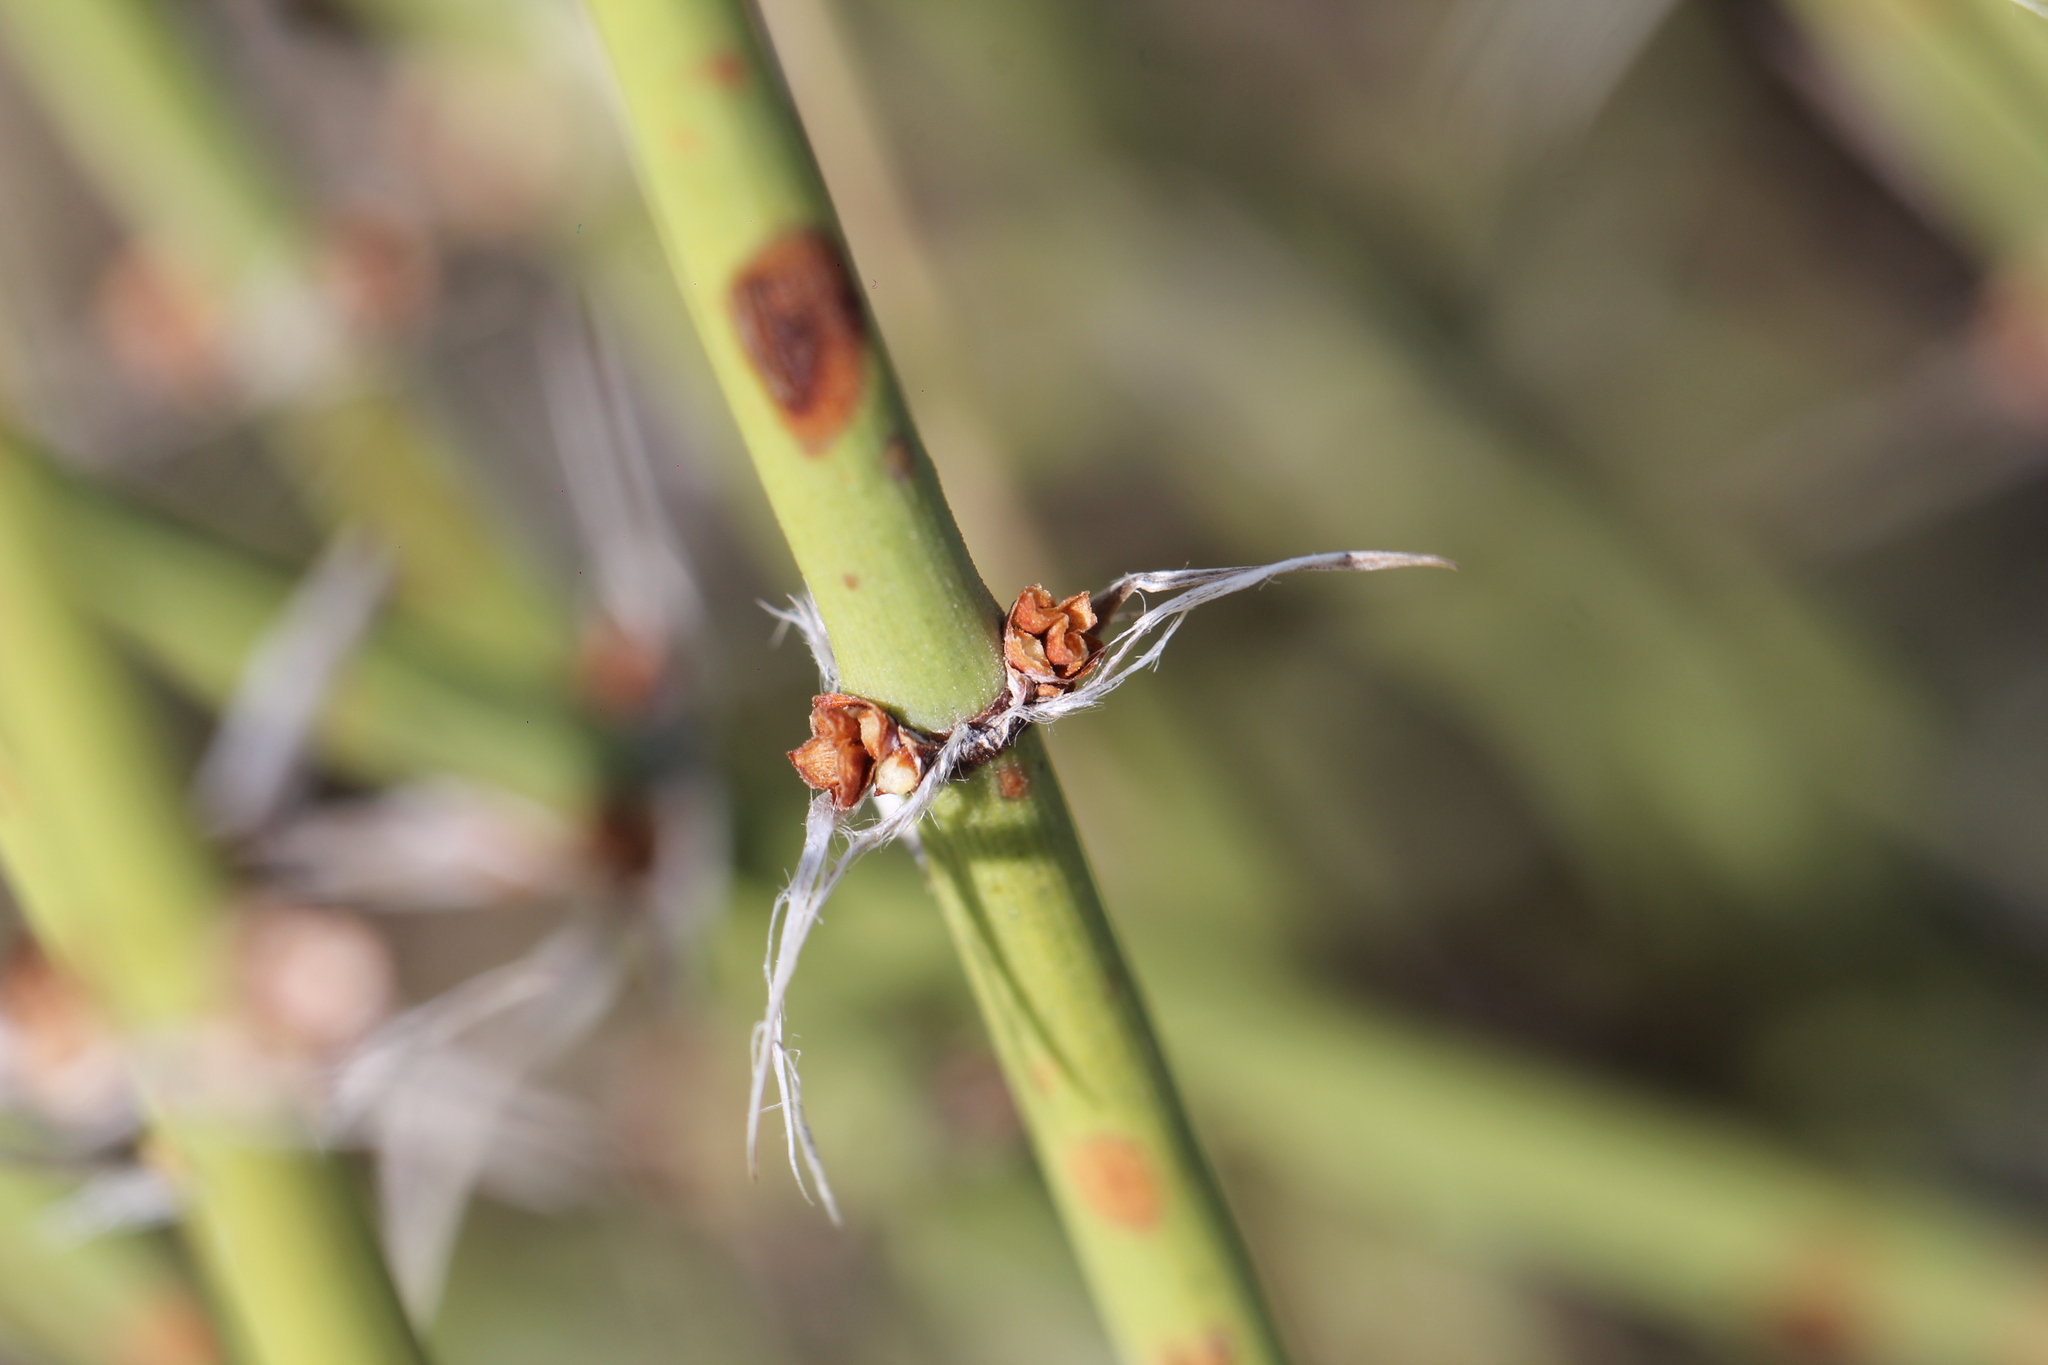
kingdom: Plantae
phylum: Tracheophyta
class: Gnetopsida
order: Ephedrales
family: Ephedraceae
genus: Ephedra
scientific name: Ephedra ochreata
